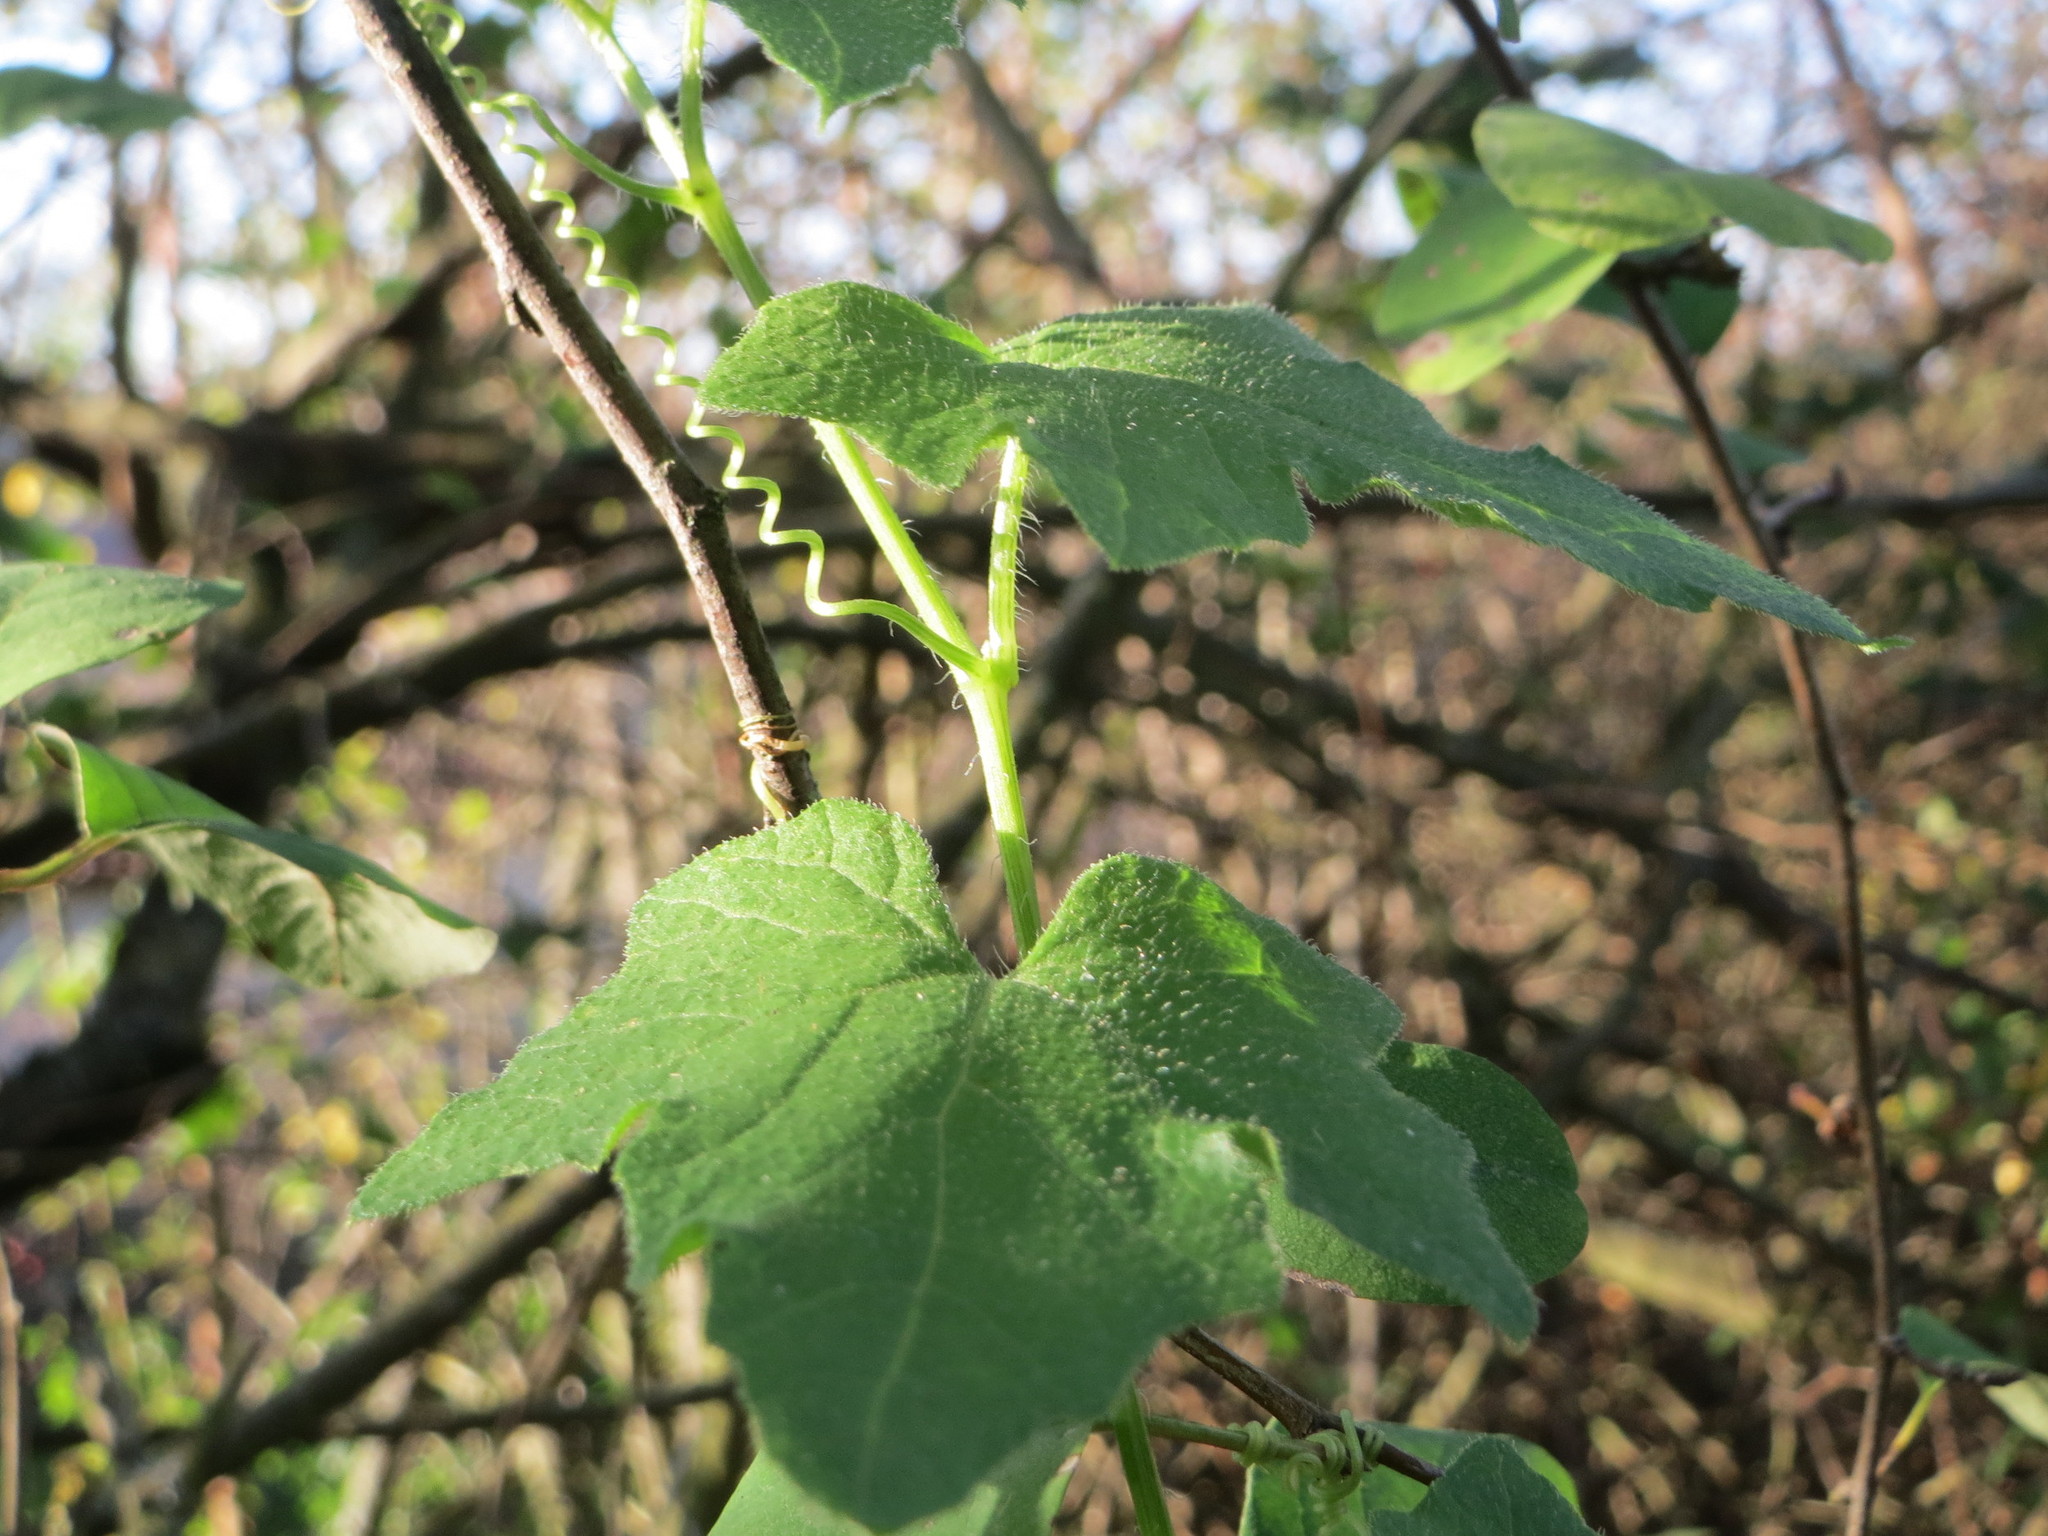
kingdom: Plantae
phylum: Tracheophyta
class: Magnoliopsida
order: Cucurbitales
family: Cucurbitaceae
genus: Bryonia
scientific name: Bryonia dioica
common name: White bryony
